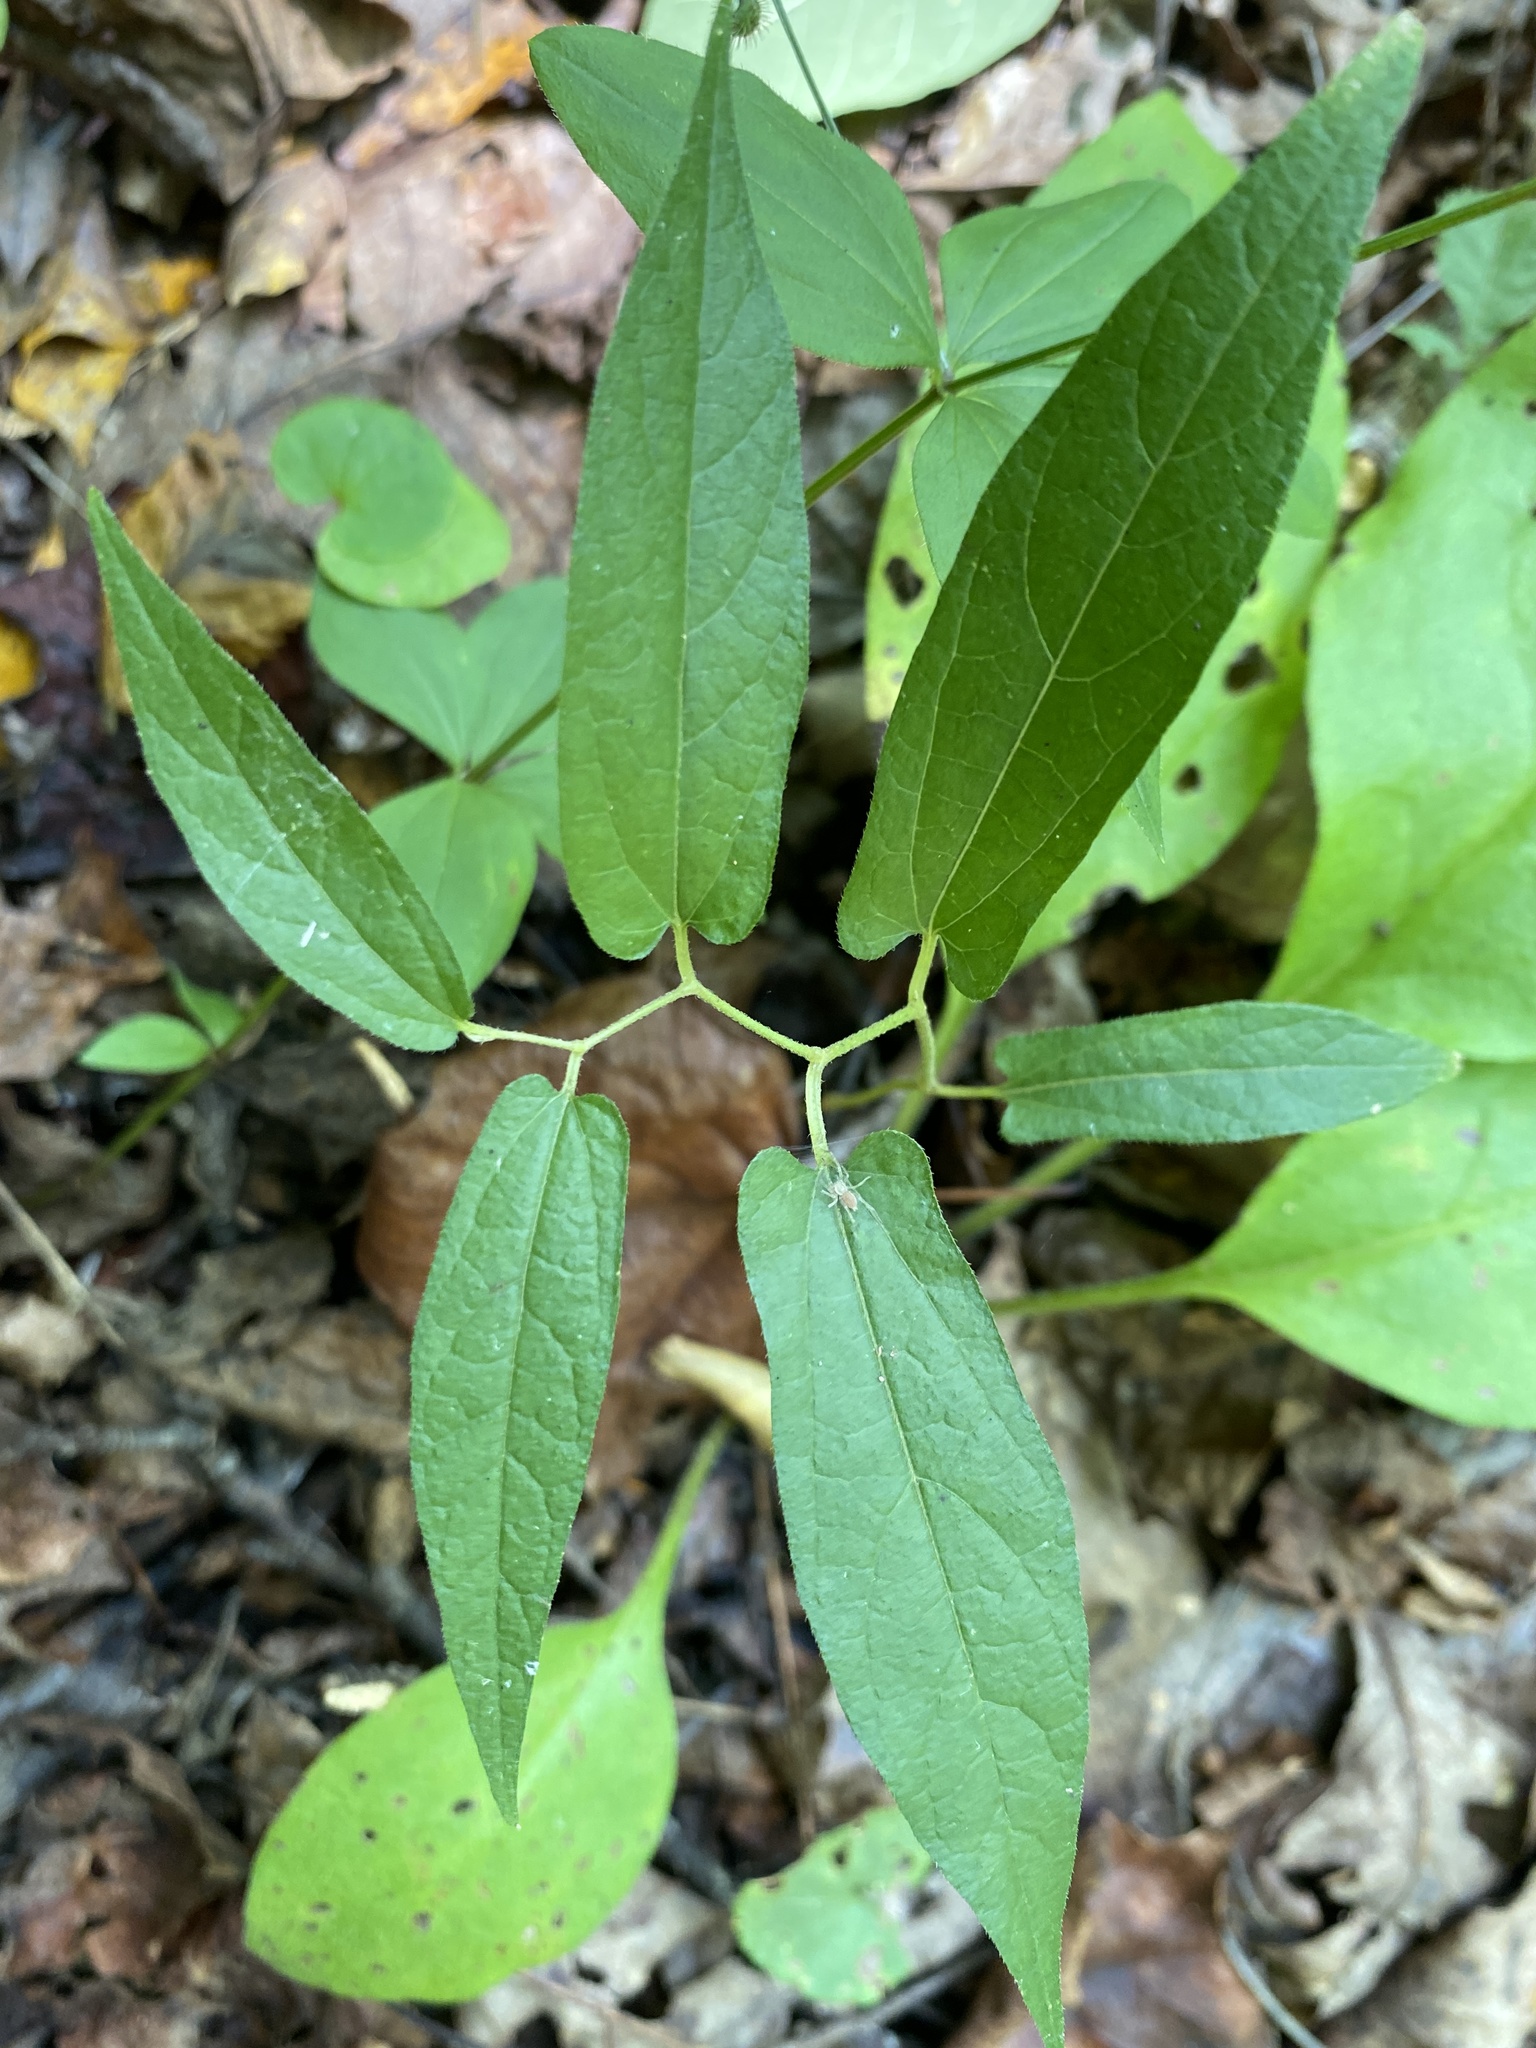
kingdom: Plantae
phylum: Tracheophyta
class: Magnoliopsida
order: Piperales
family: Aristolochiaceae
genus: Endodeca
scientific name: Endodeca serpentaria
